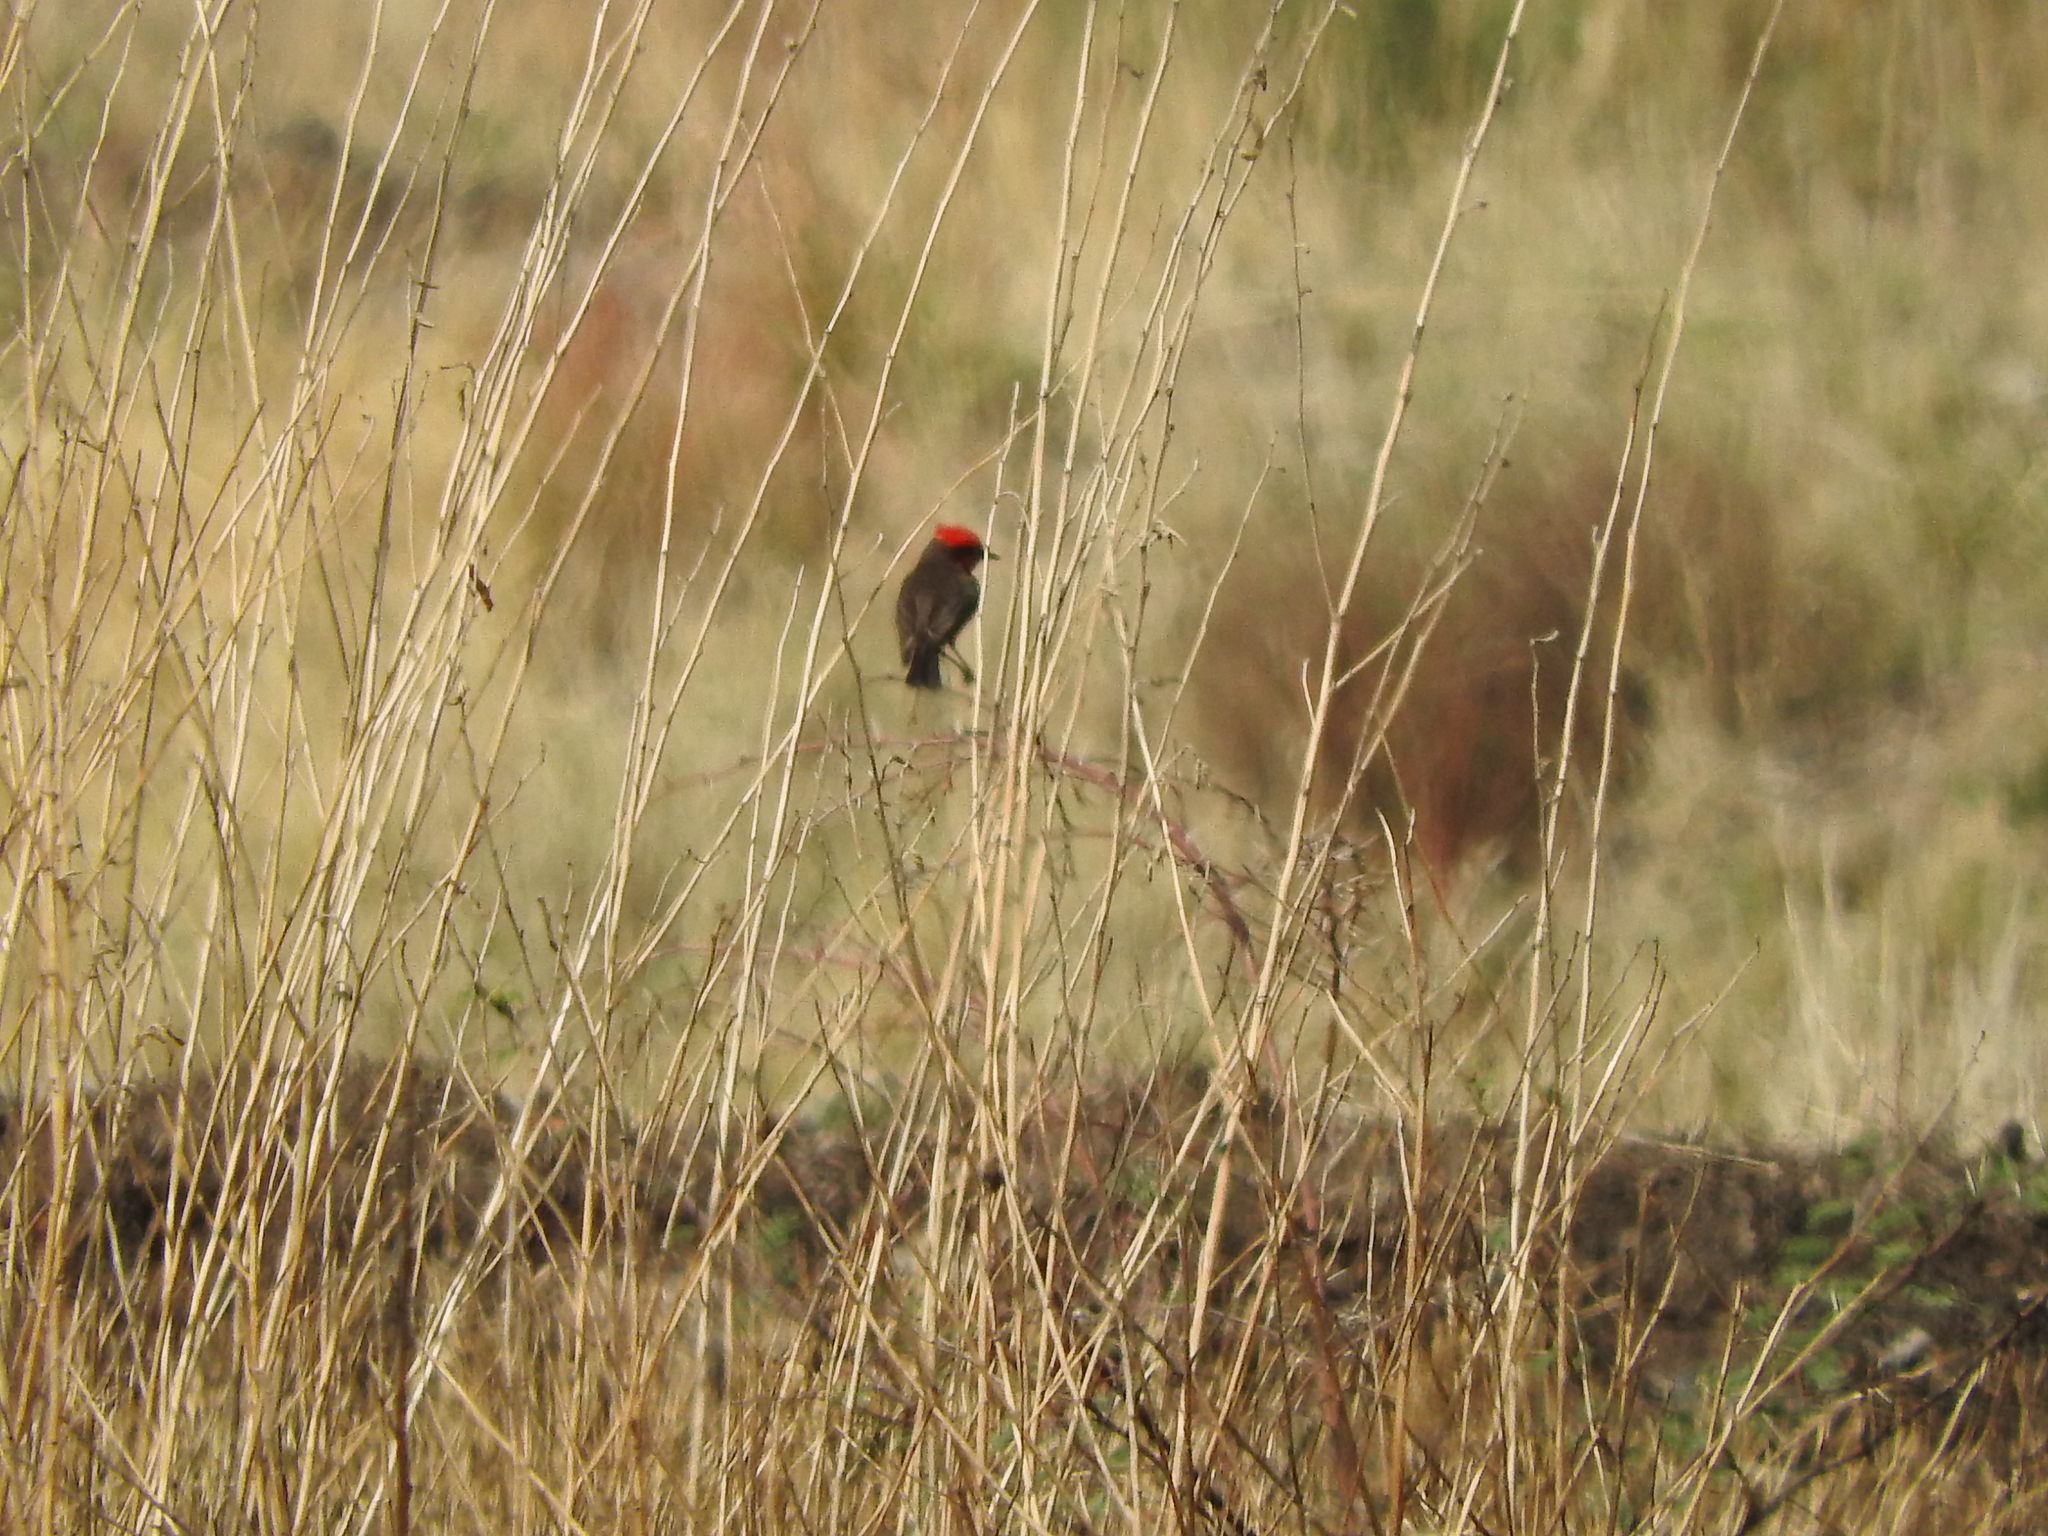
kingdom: Animalia
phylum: Chordata
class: Aves
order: Passeriformes
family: Tyrannidae
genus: Pyrocephalus
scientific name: Pyrocephalus rubinus
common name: Vermilion flycatcher
